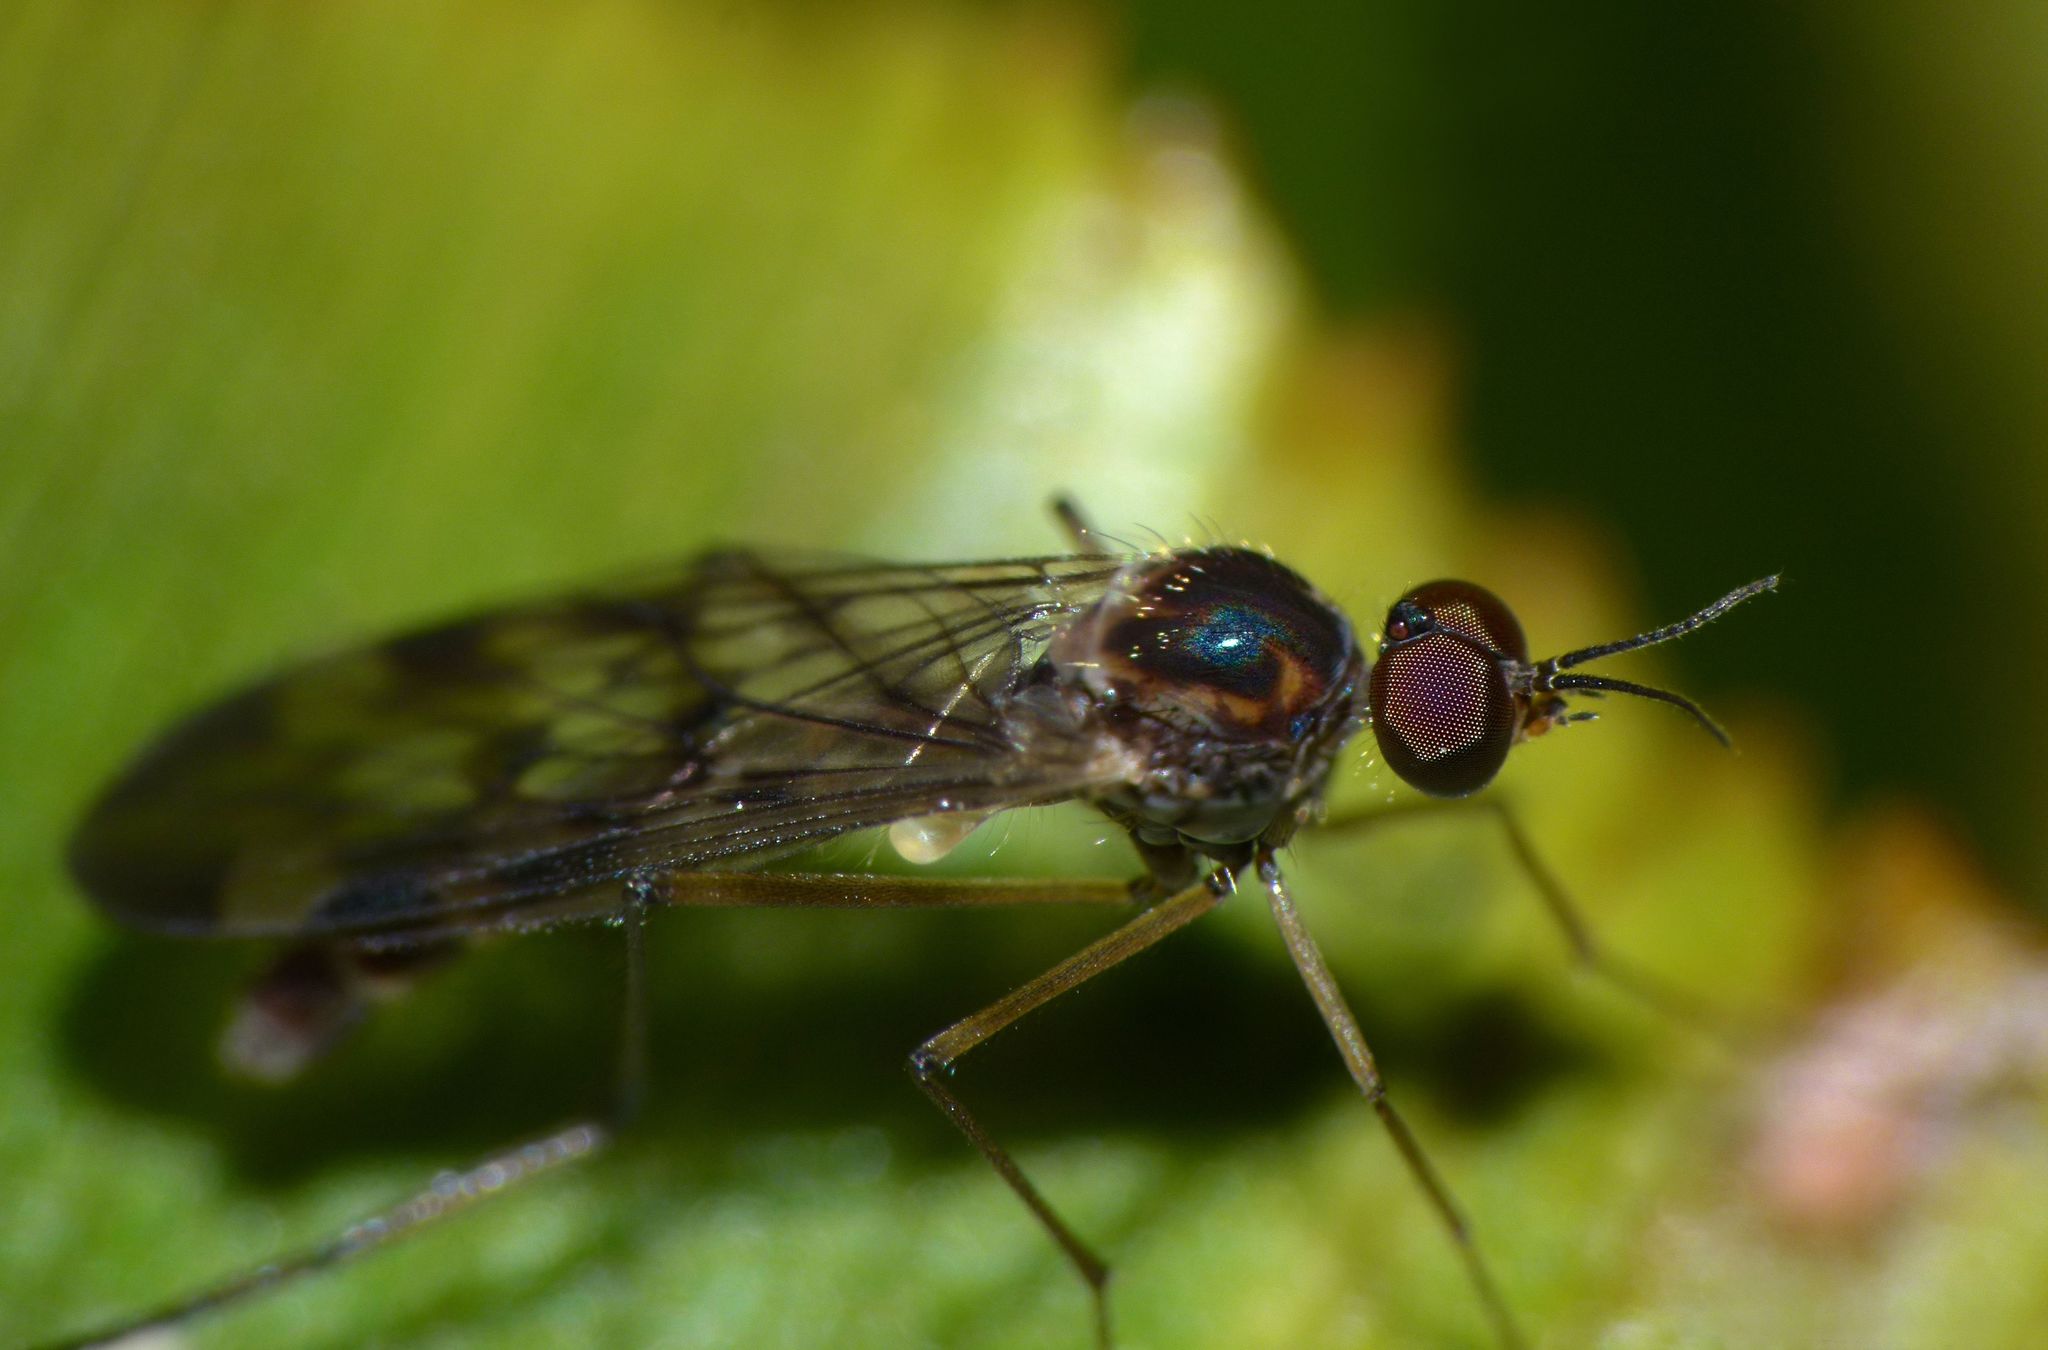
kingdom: Animalia
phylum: Arthropoda
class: Insecta
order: Diptera
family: Anisopodidae
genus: Sylvicola
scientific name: Sylvicola undulatus
